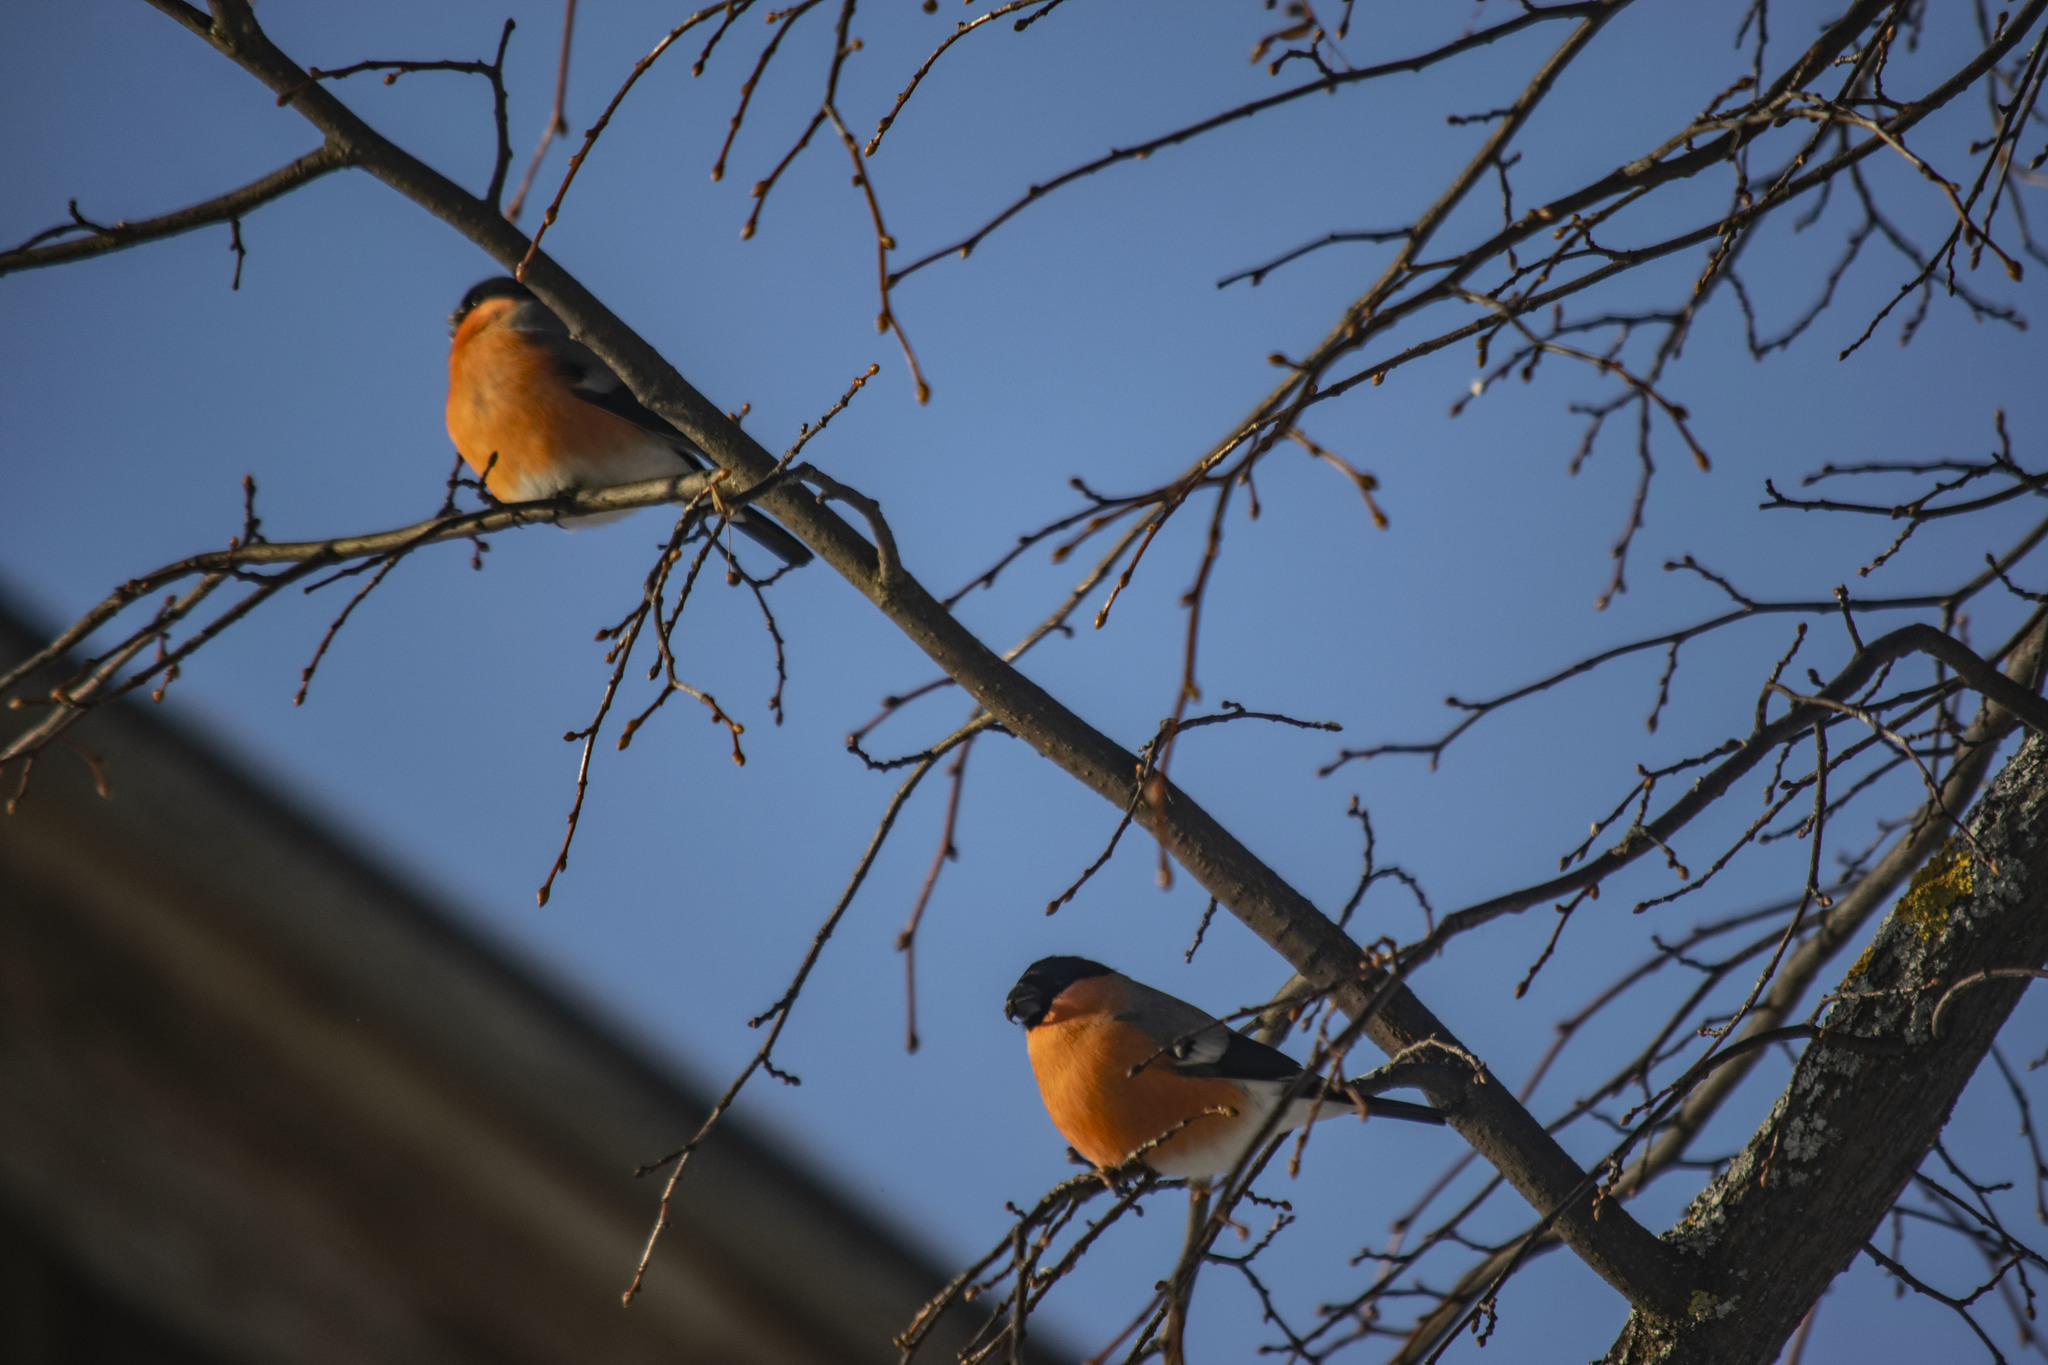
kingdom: Animalia
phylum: Chordata
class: Aves
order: Passeriformes
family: Fringillidae
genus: Pyrrhula
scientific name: Pyrrhula pyrrhula
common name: Eurasian bullfinch
